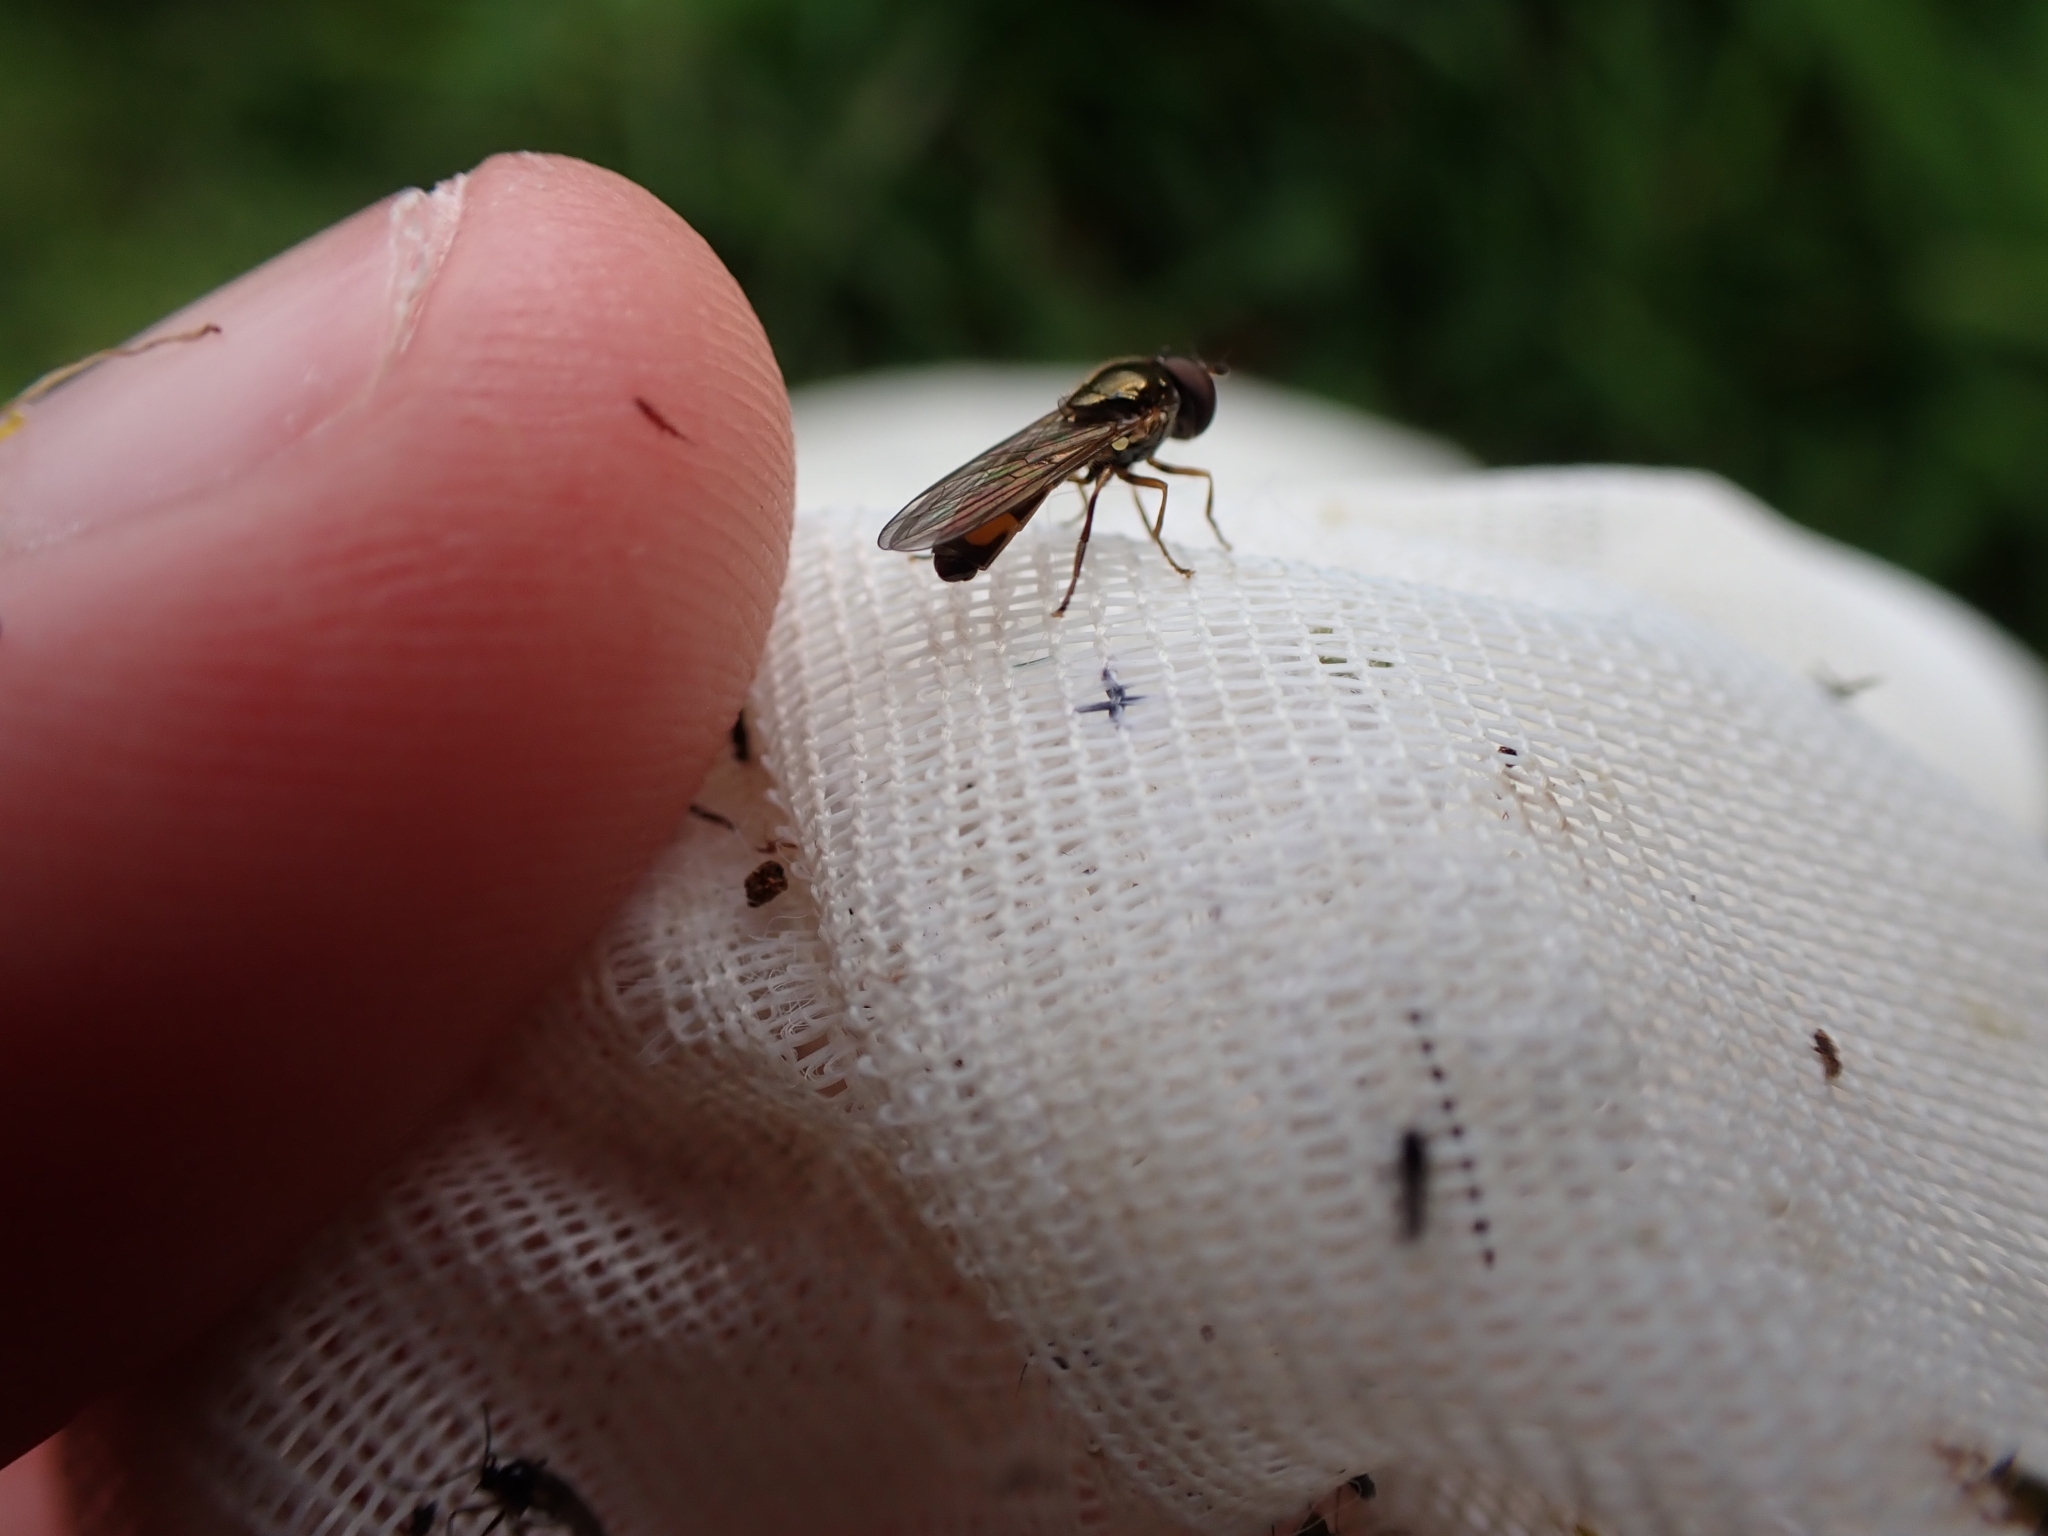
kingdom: Animalia
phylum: Arthropoda
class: Insecta
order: Diptera
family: Syrphidae
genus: Melangyna
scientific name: Melangyna novaezelandiae
